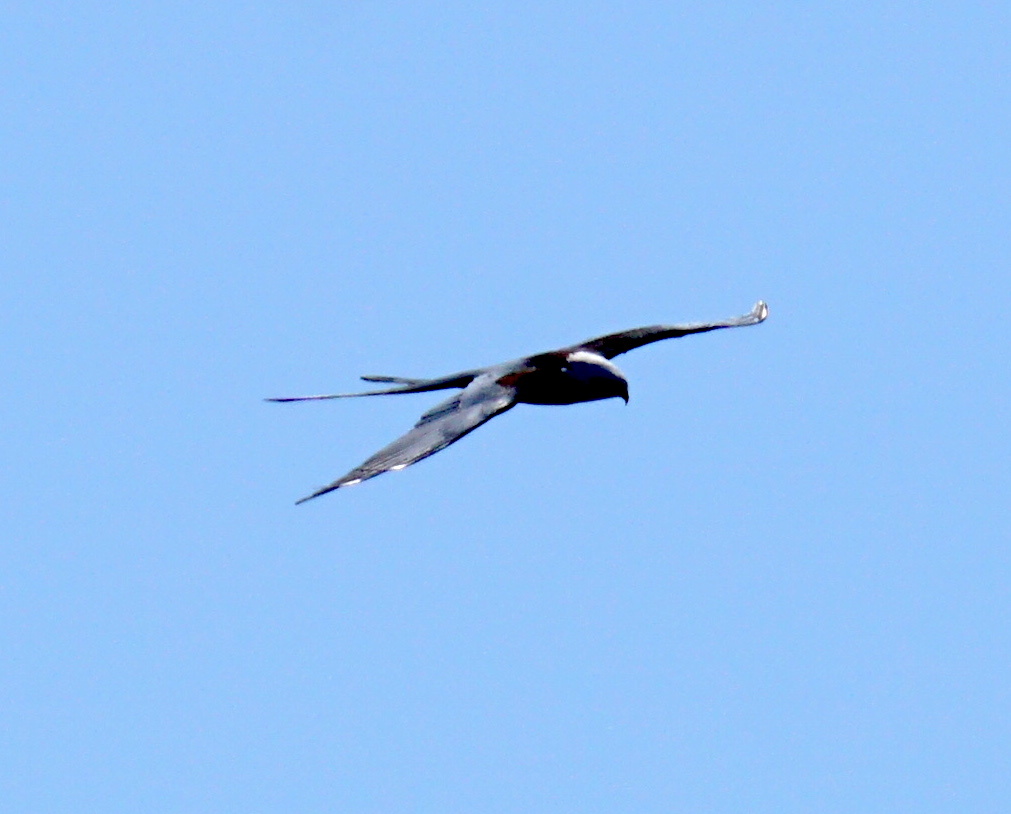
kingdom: Animalia
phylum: Chordata
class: Aves
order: Accipitriformes
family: Accipitridae
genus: Elanoides
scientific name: Elanoides forficatus
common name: Swallow-tailed kite
